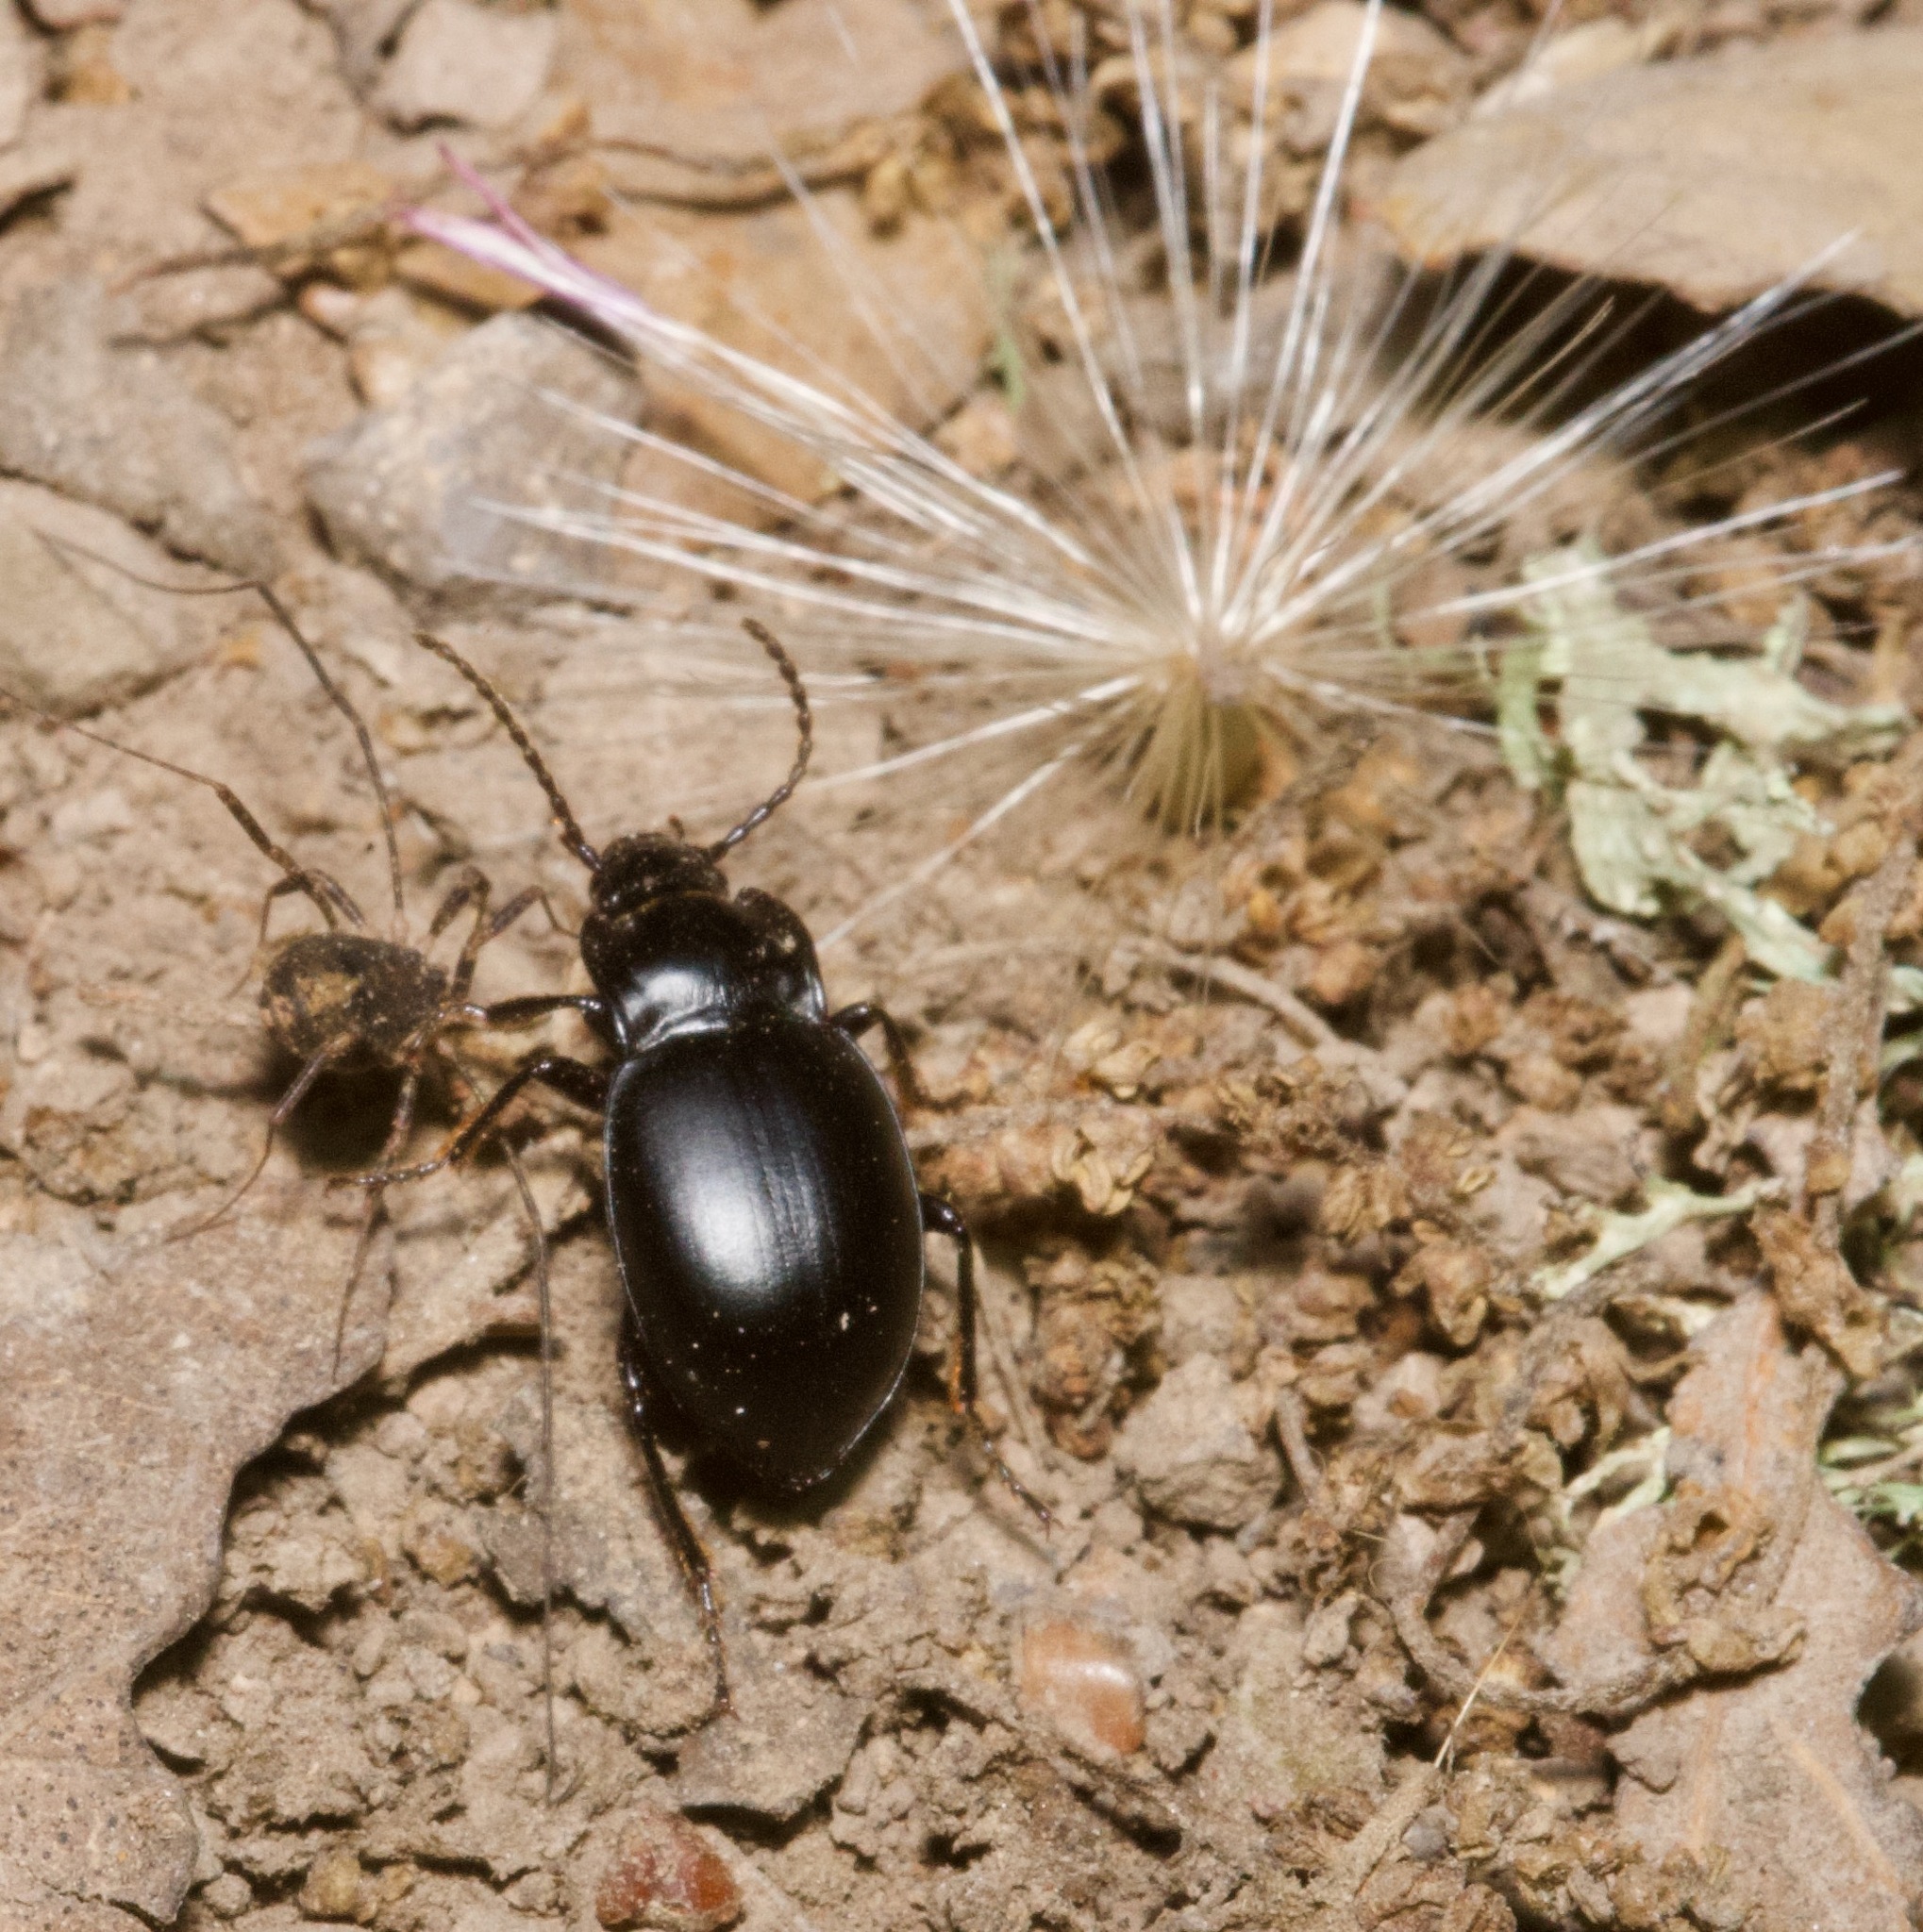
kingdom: Animalia
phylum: Arthropoda
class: Insecta
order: Coleoptera
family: Carabidae
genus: Metrius
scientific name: Metrius contractus
